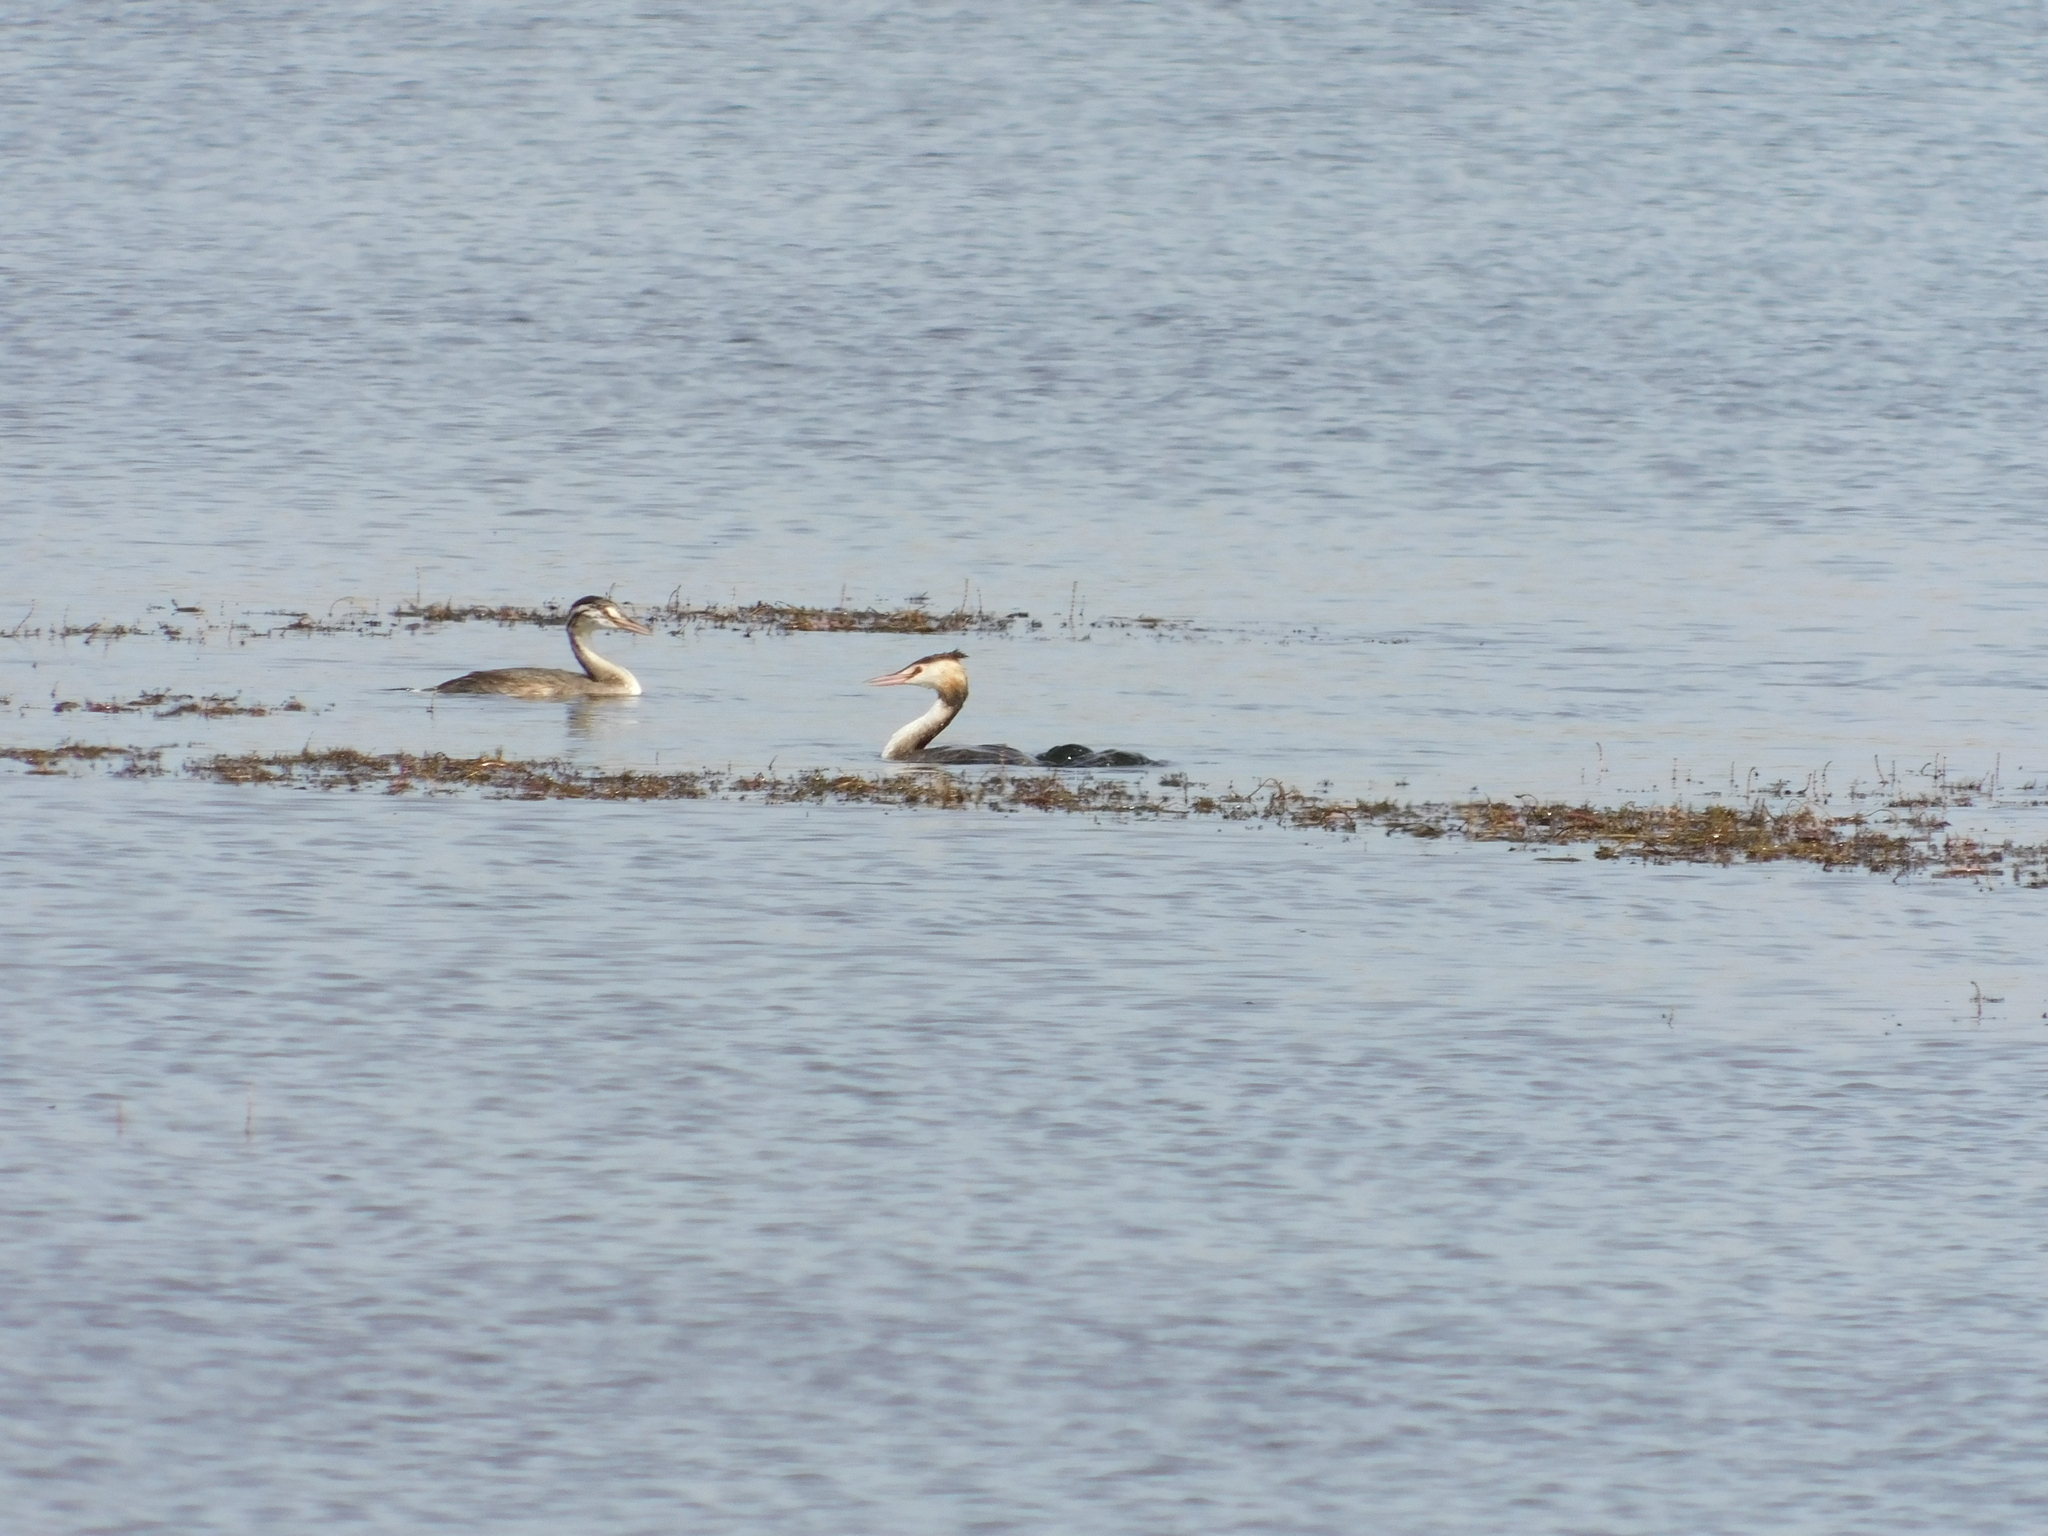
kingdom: Animalia
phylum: Chordata
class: Aves
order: Podicipediformes
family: Podicipedidae
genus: Podiceps
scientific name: Podiceps cristatus
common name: Great crested grebe
